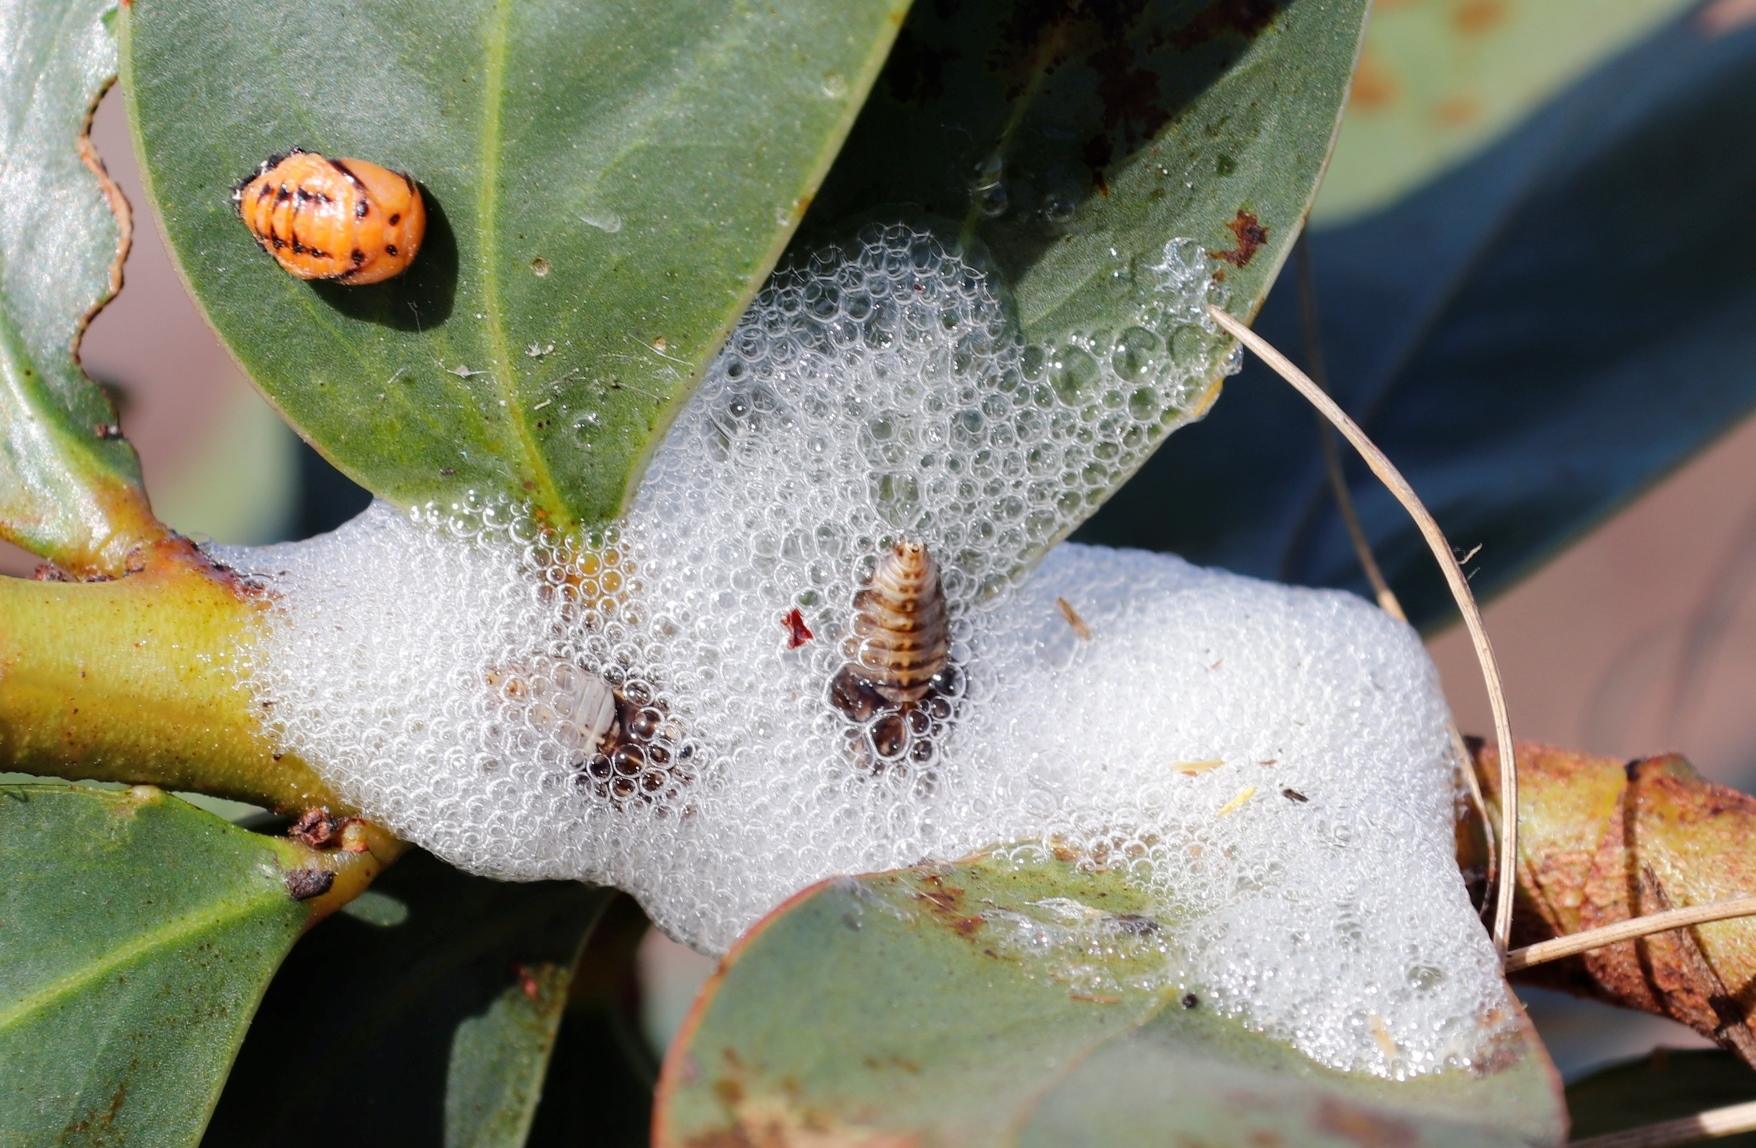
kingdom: Plantae
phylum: Tracheophyta
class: Magnoliopsida
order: Fabales
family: Fabaceae
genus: Acacia
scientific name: Acacia pycnantha
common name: Golden wattle
